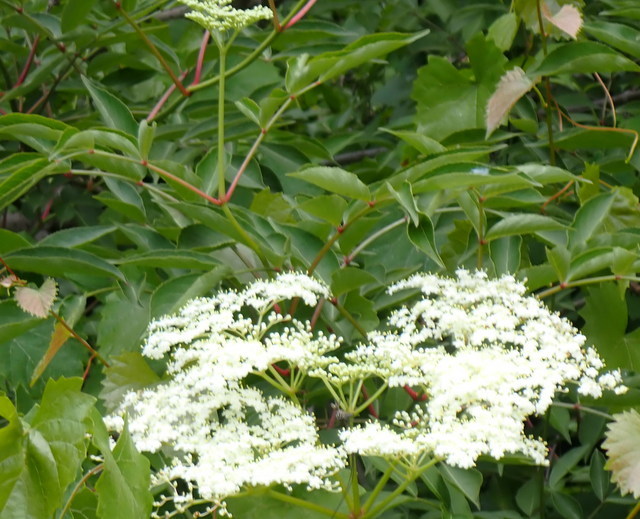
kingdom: Plantae
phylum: Tracheophyta
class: Magnoliopsida
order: Dipsacales
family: Viburnaceae
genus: Sambucus
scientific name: Sambucus canadensis
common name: American elder
